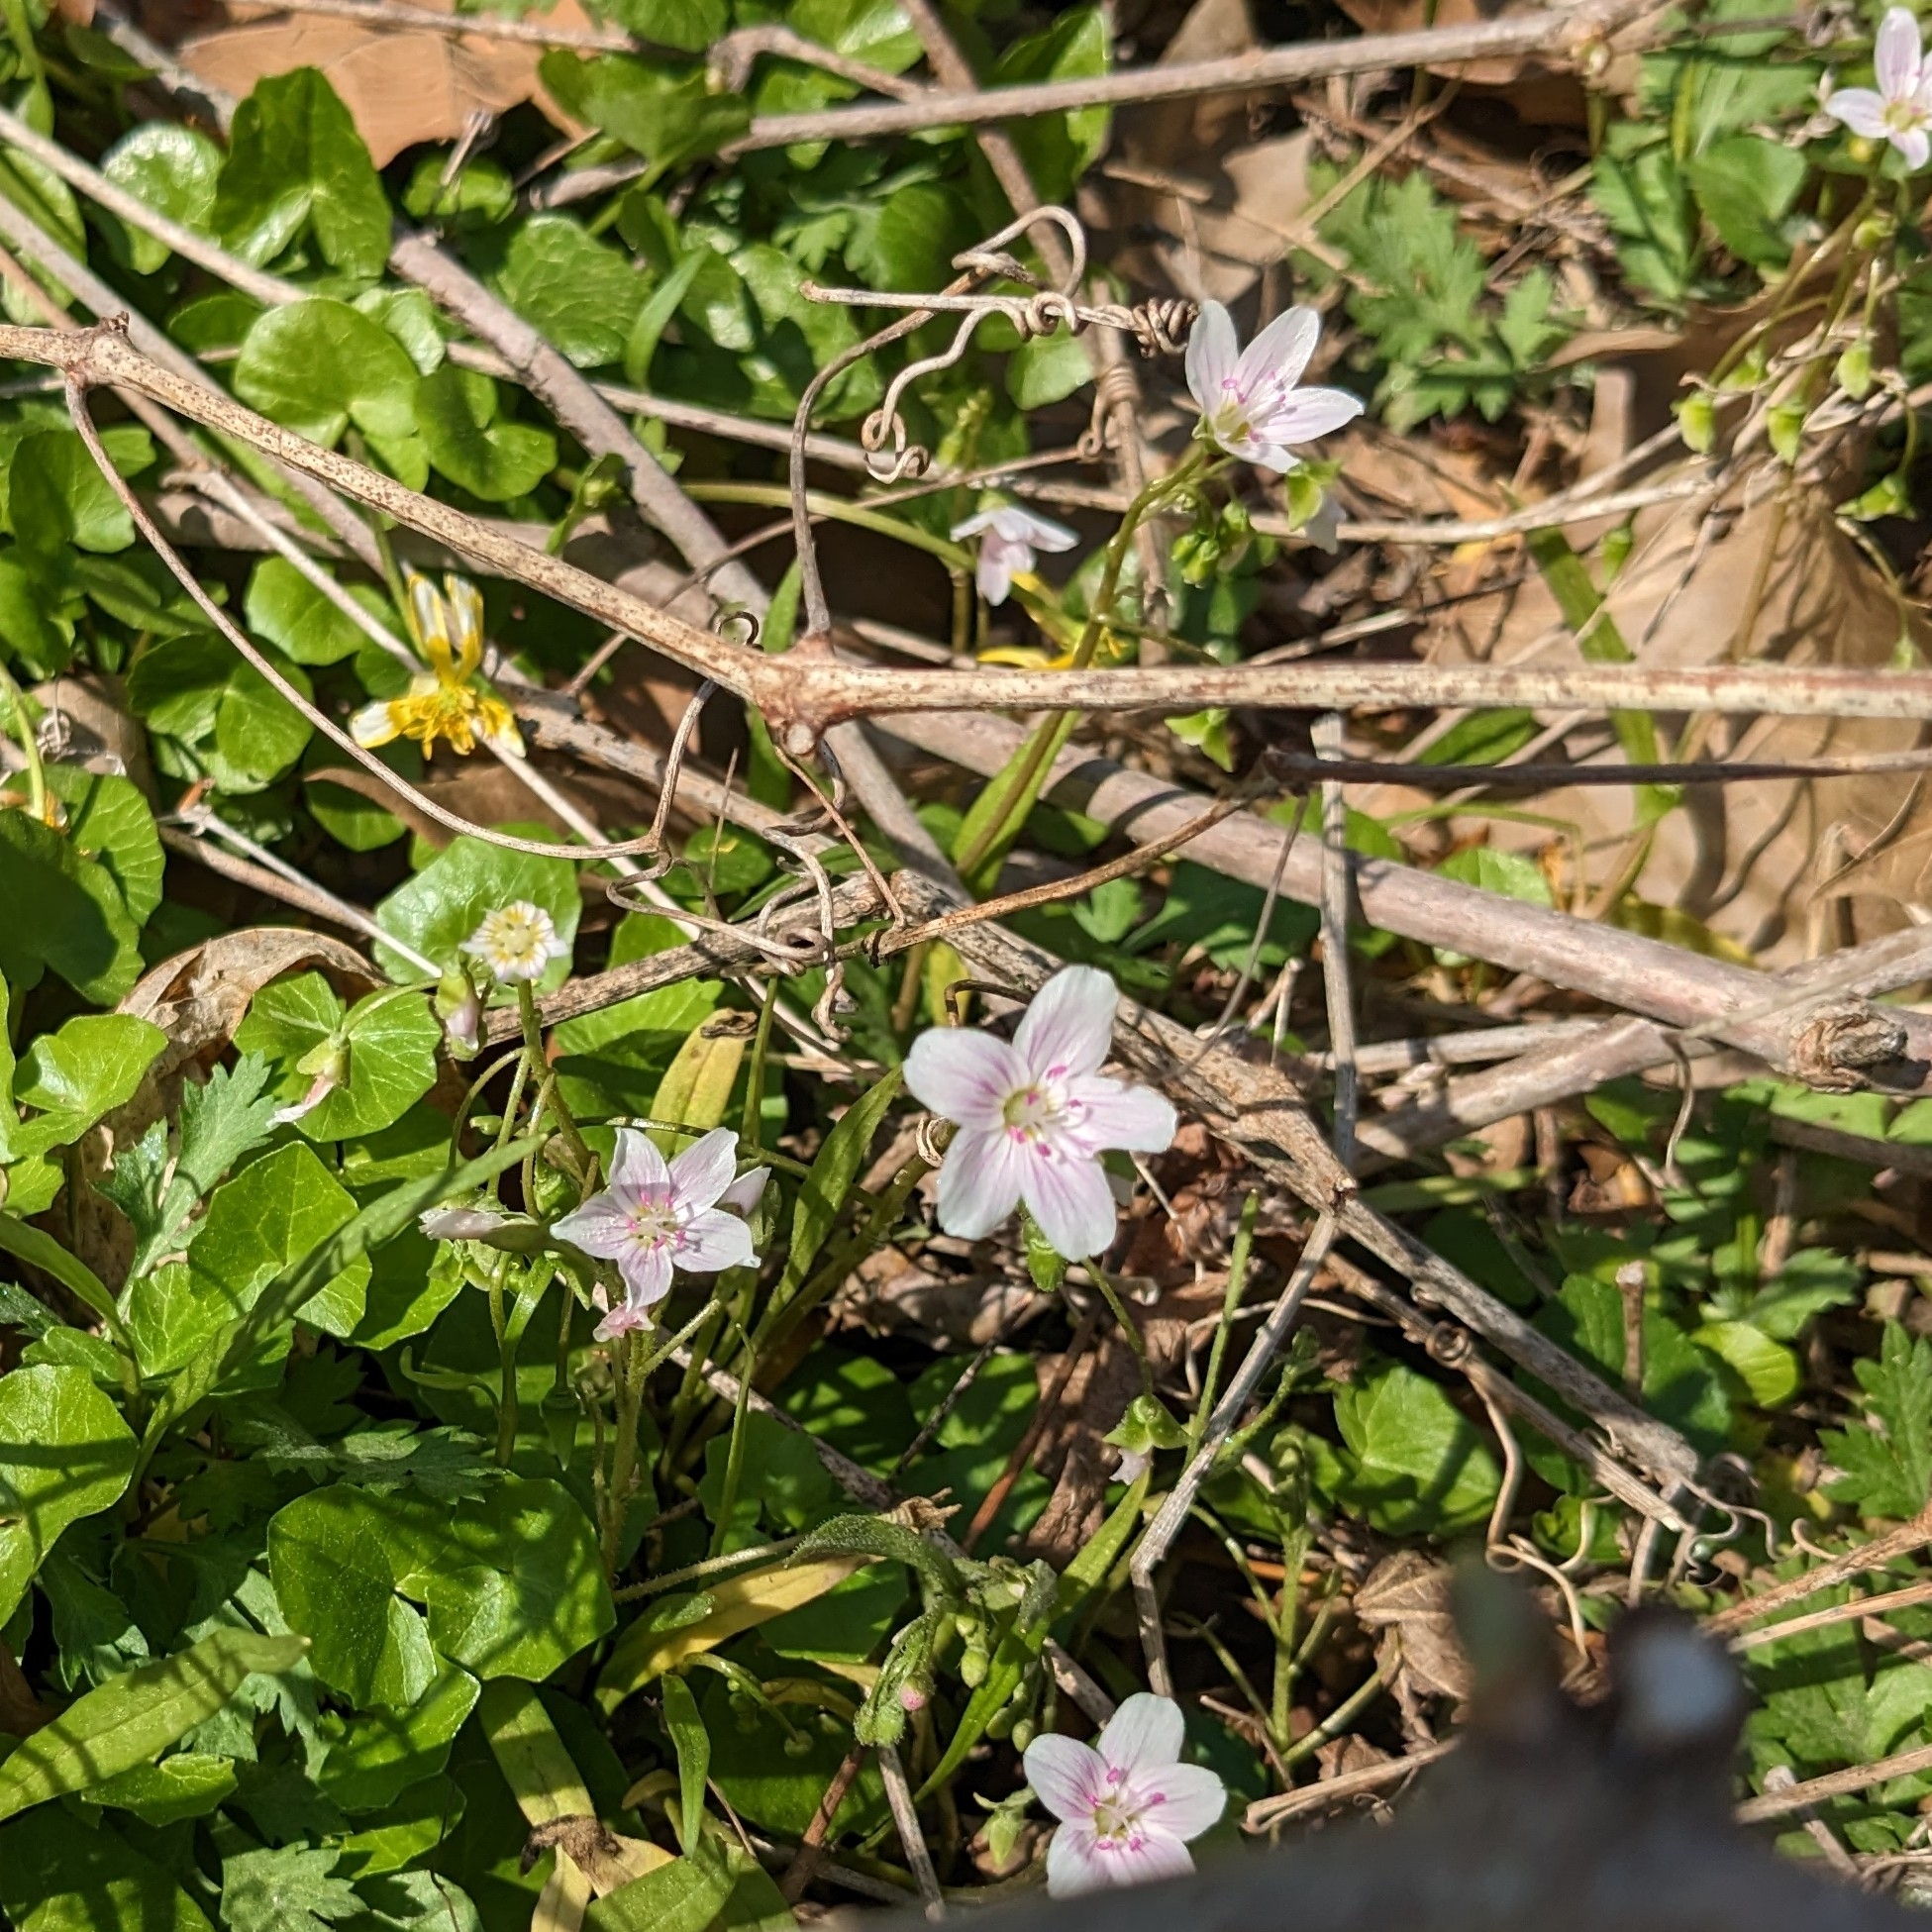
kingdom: Plantae
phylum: Tracheophyta
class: Magnoliopsida
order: Caryophyllales
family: Montiaceae
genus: Claytonia
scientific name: Claytonia virginica
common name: Virginia springbeauty
